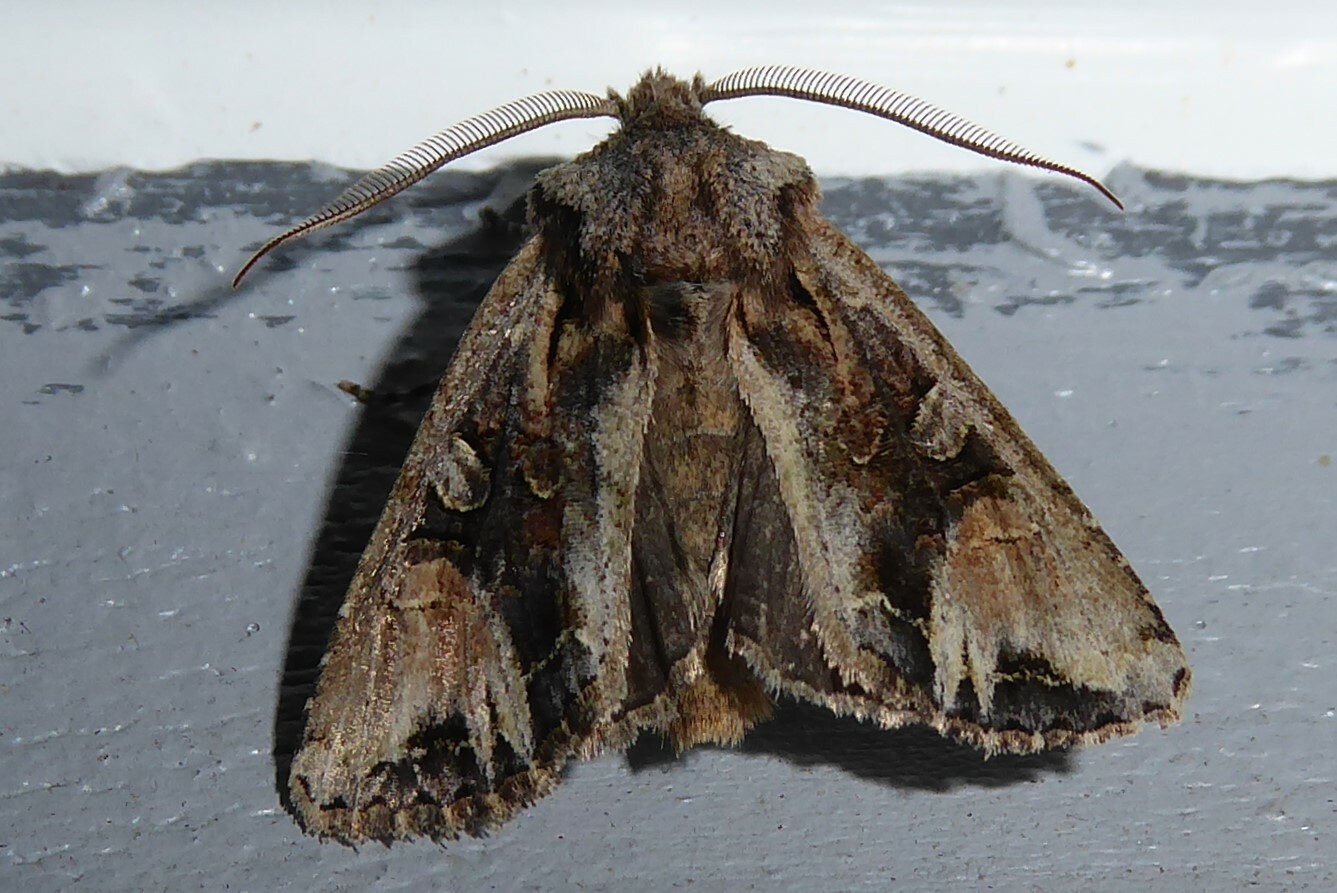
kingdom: Animalia
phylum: Arthropoda
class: Insecta
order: Lepidoptera
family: Noctuidae
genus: Ichneutica
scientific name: Ichneutica
